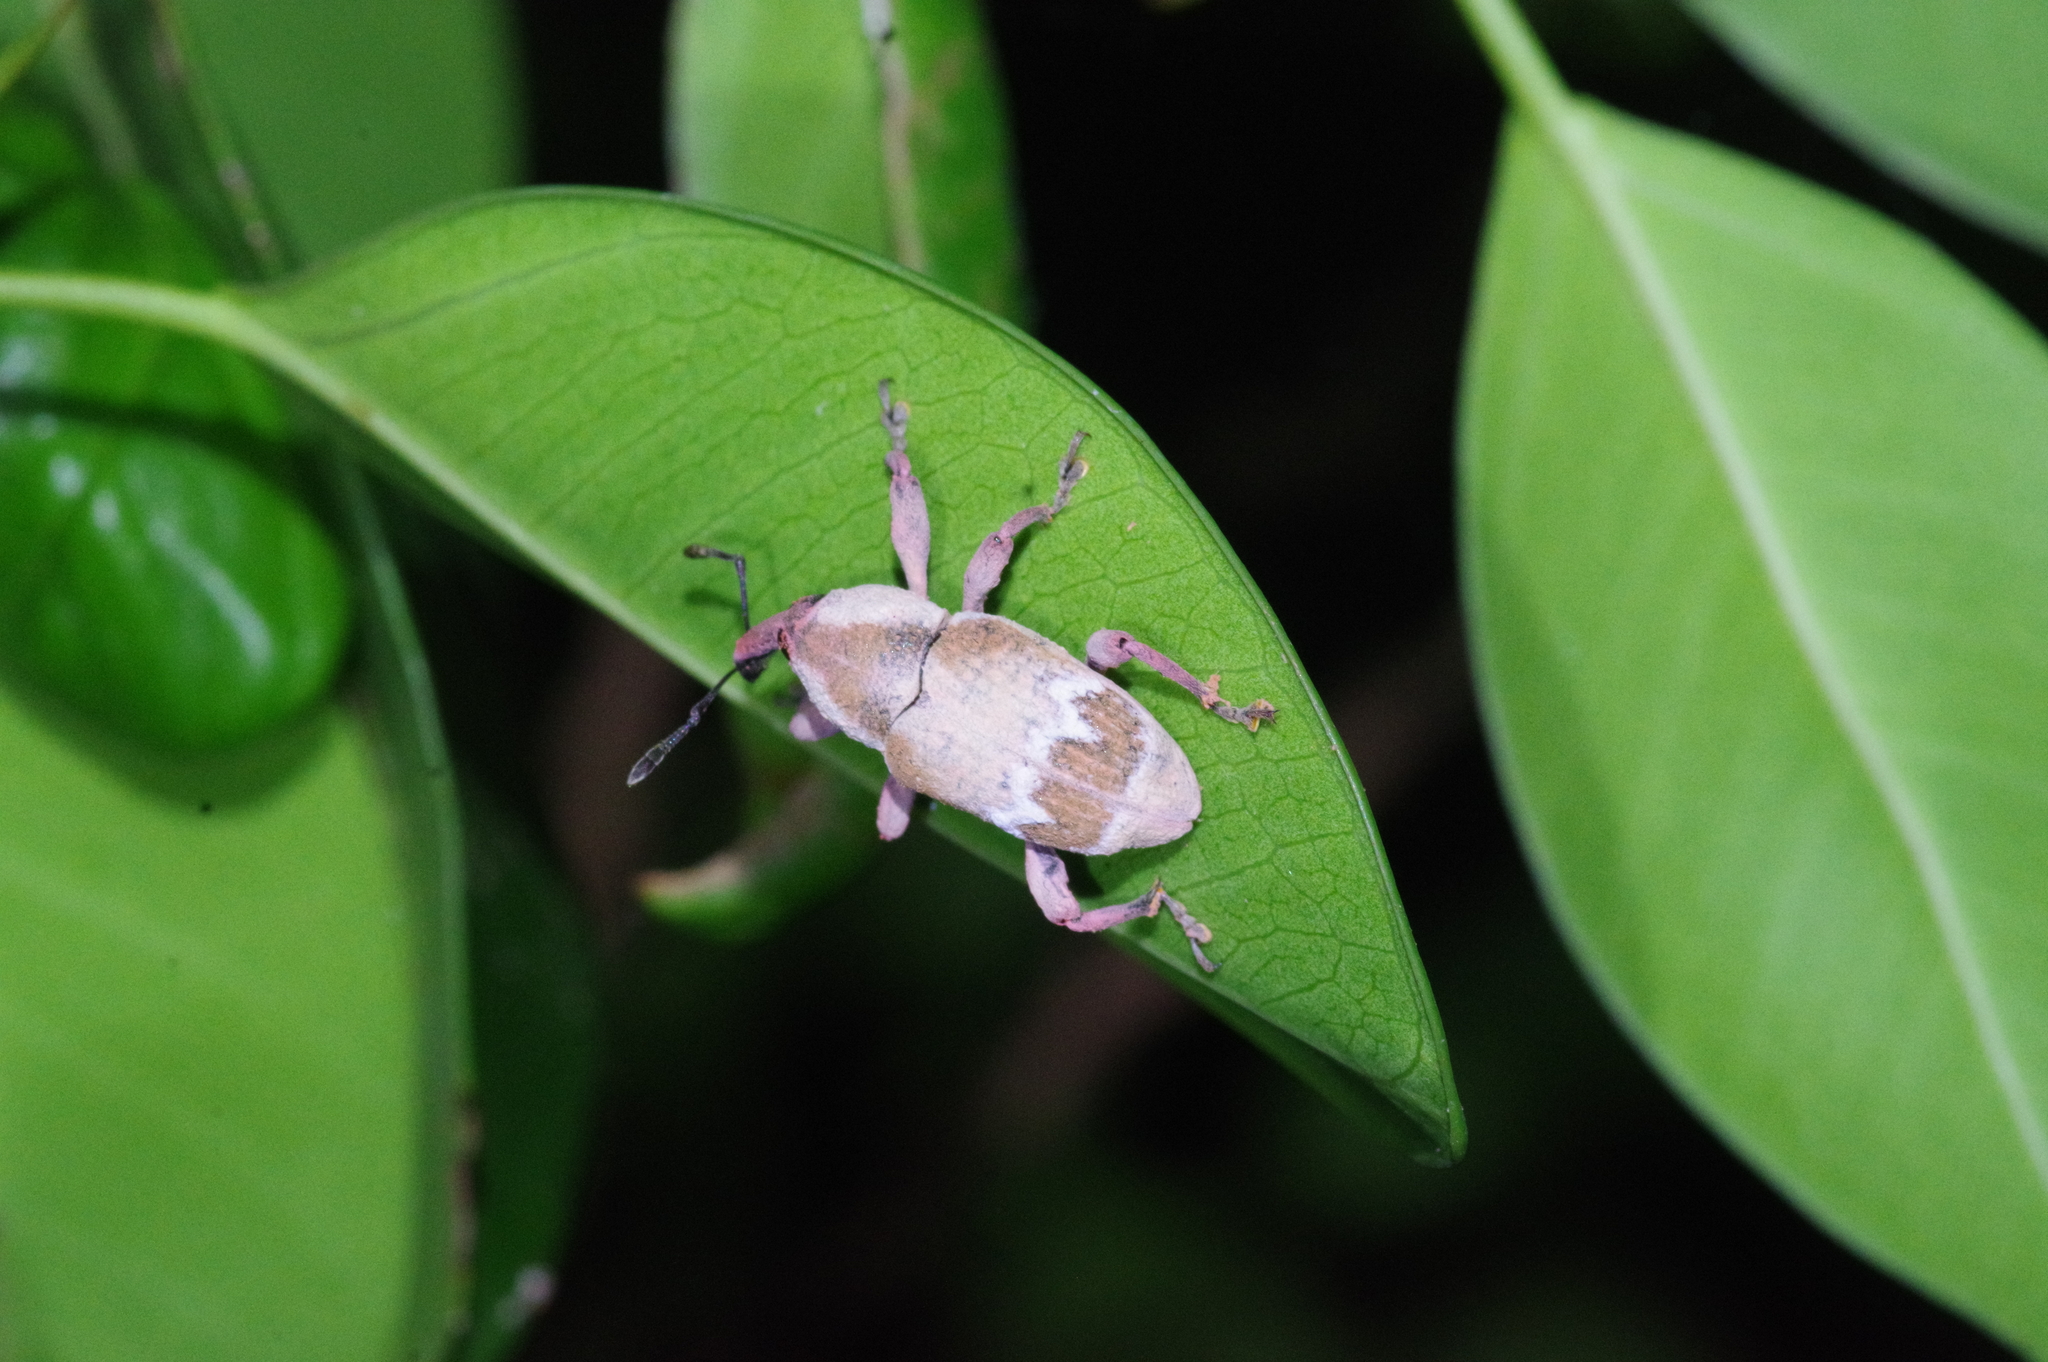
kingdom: Animalia
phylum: Arthropoda
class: Insecta
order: Coleoptera
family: Curculionidae
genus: Aclees
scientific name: Aclees hirayamai
